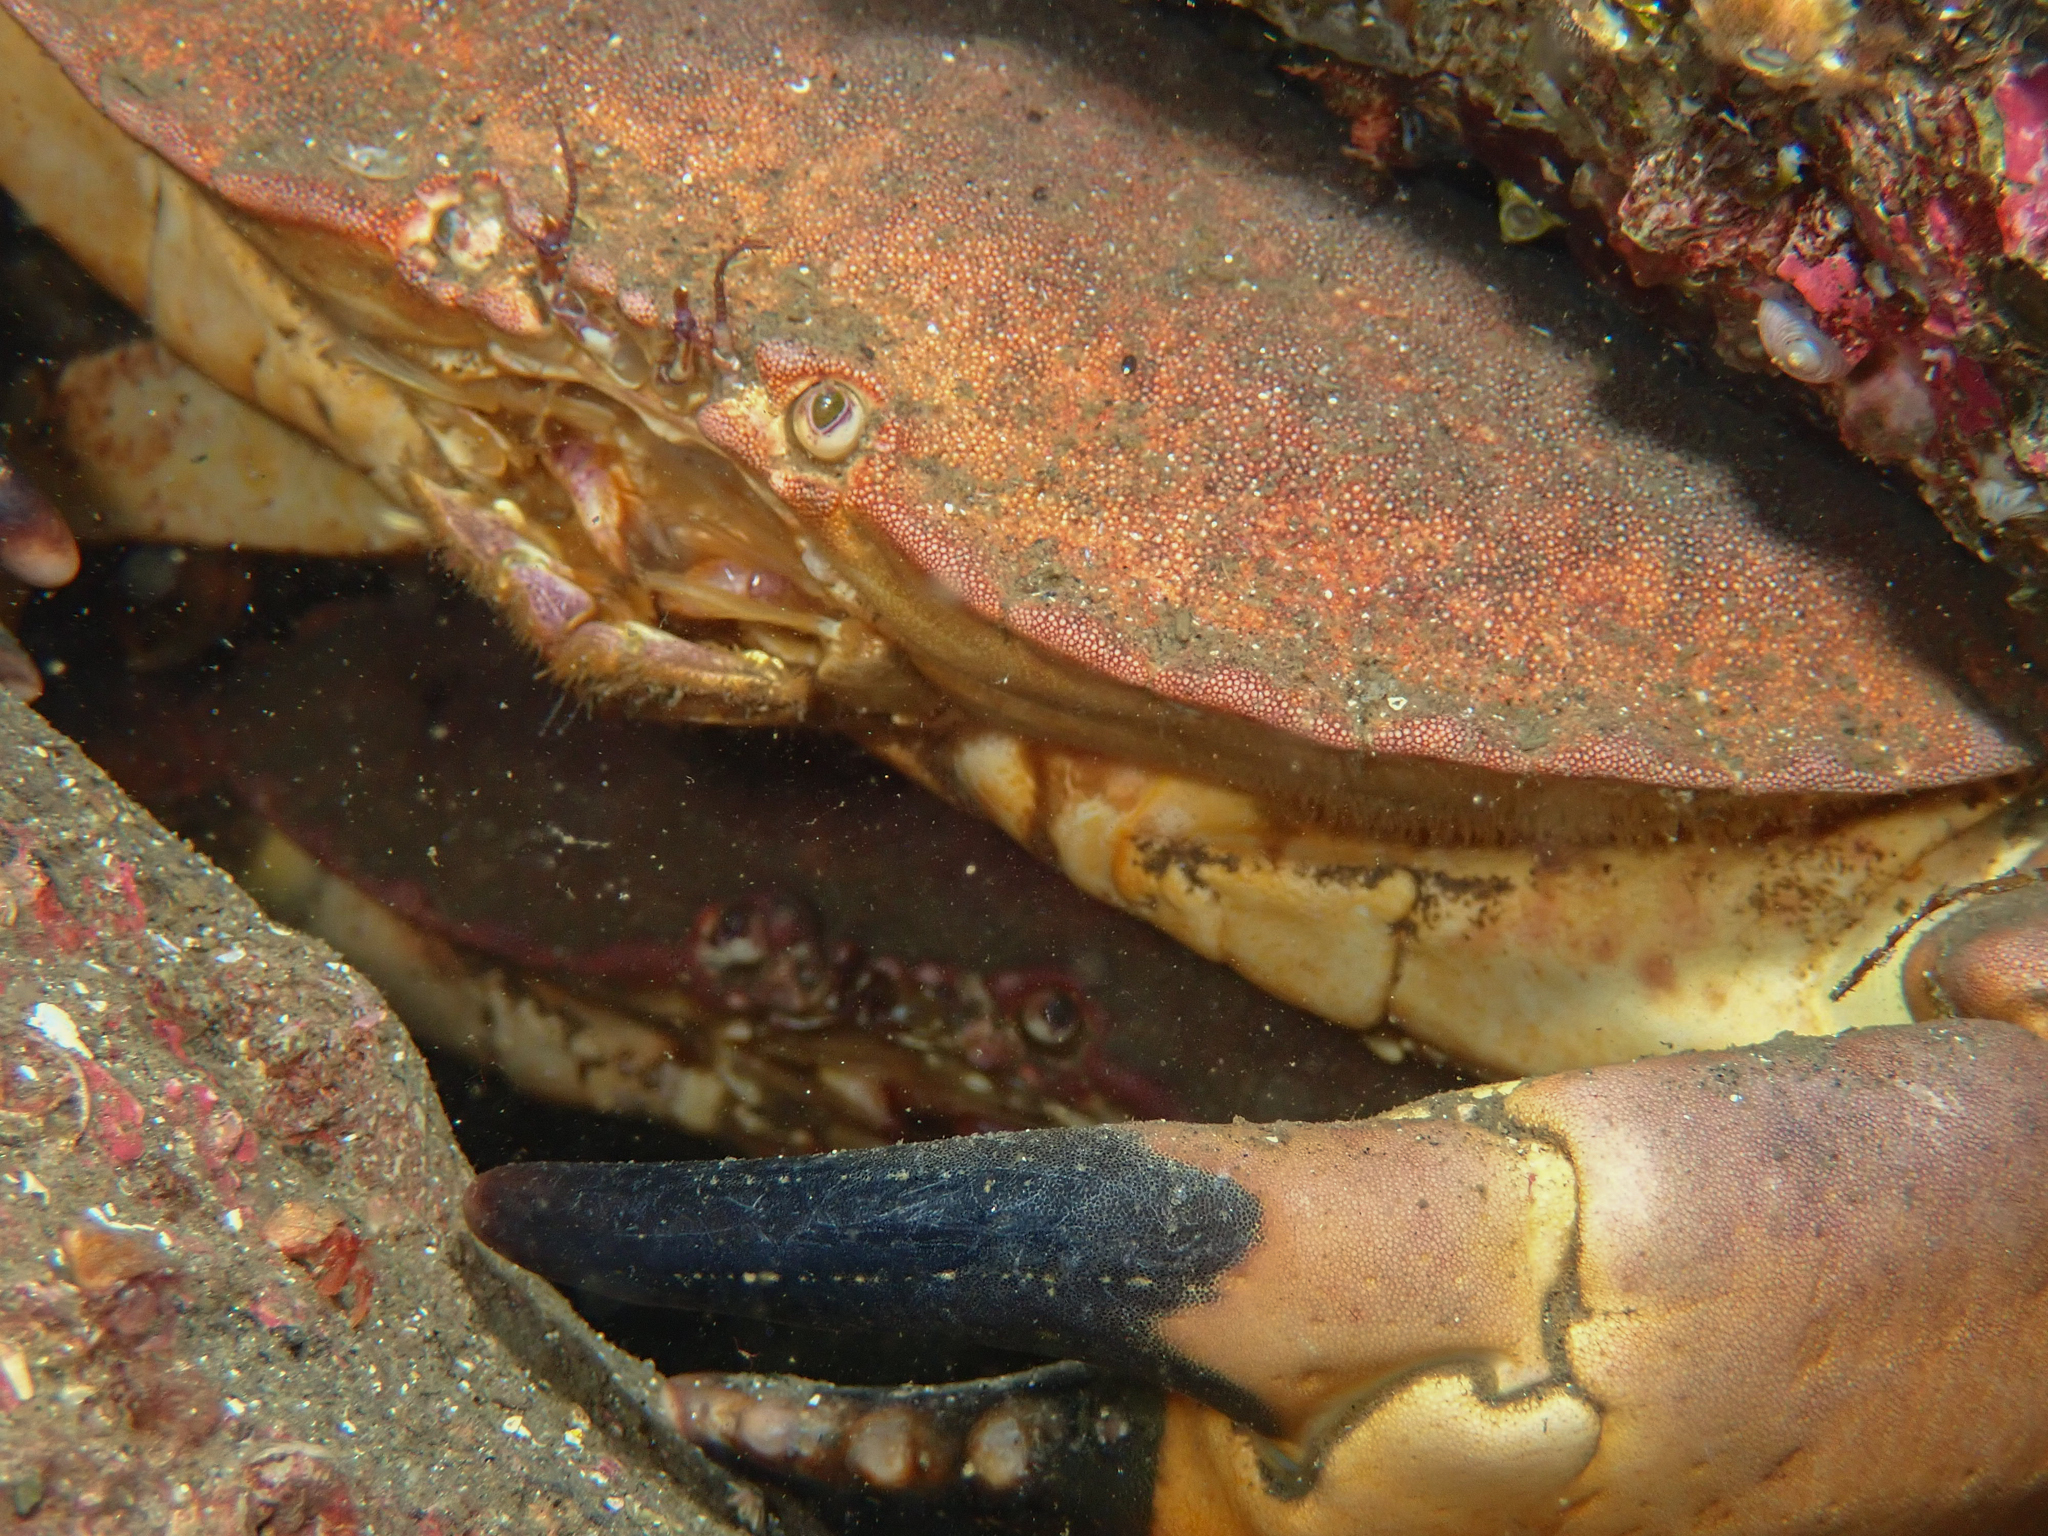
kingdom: Animalia
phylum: Arthropoda
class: Malacostraca
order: Decapoda
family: Cancridae
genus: Cancer
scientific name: Cancer pagurus
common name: Edible crab
